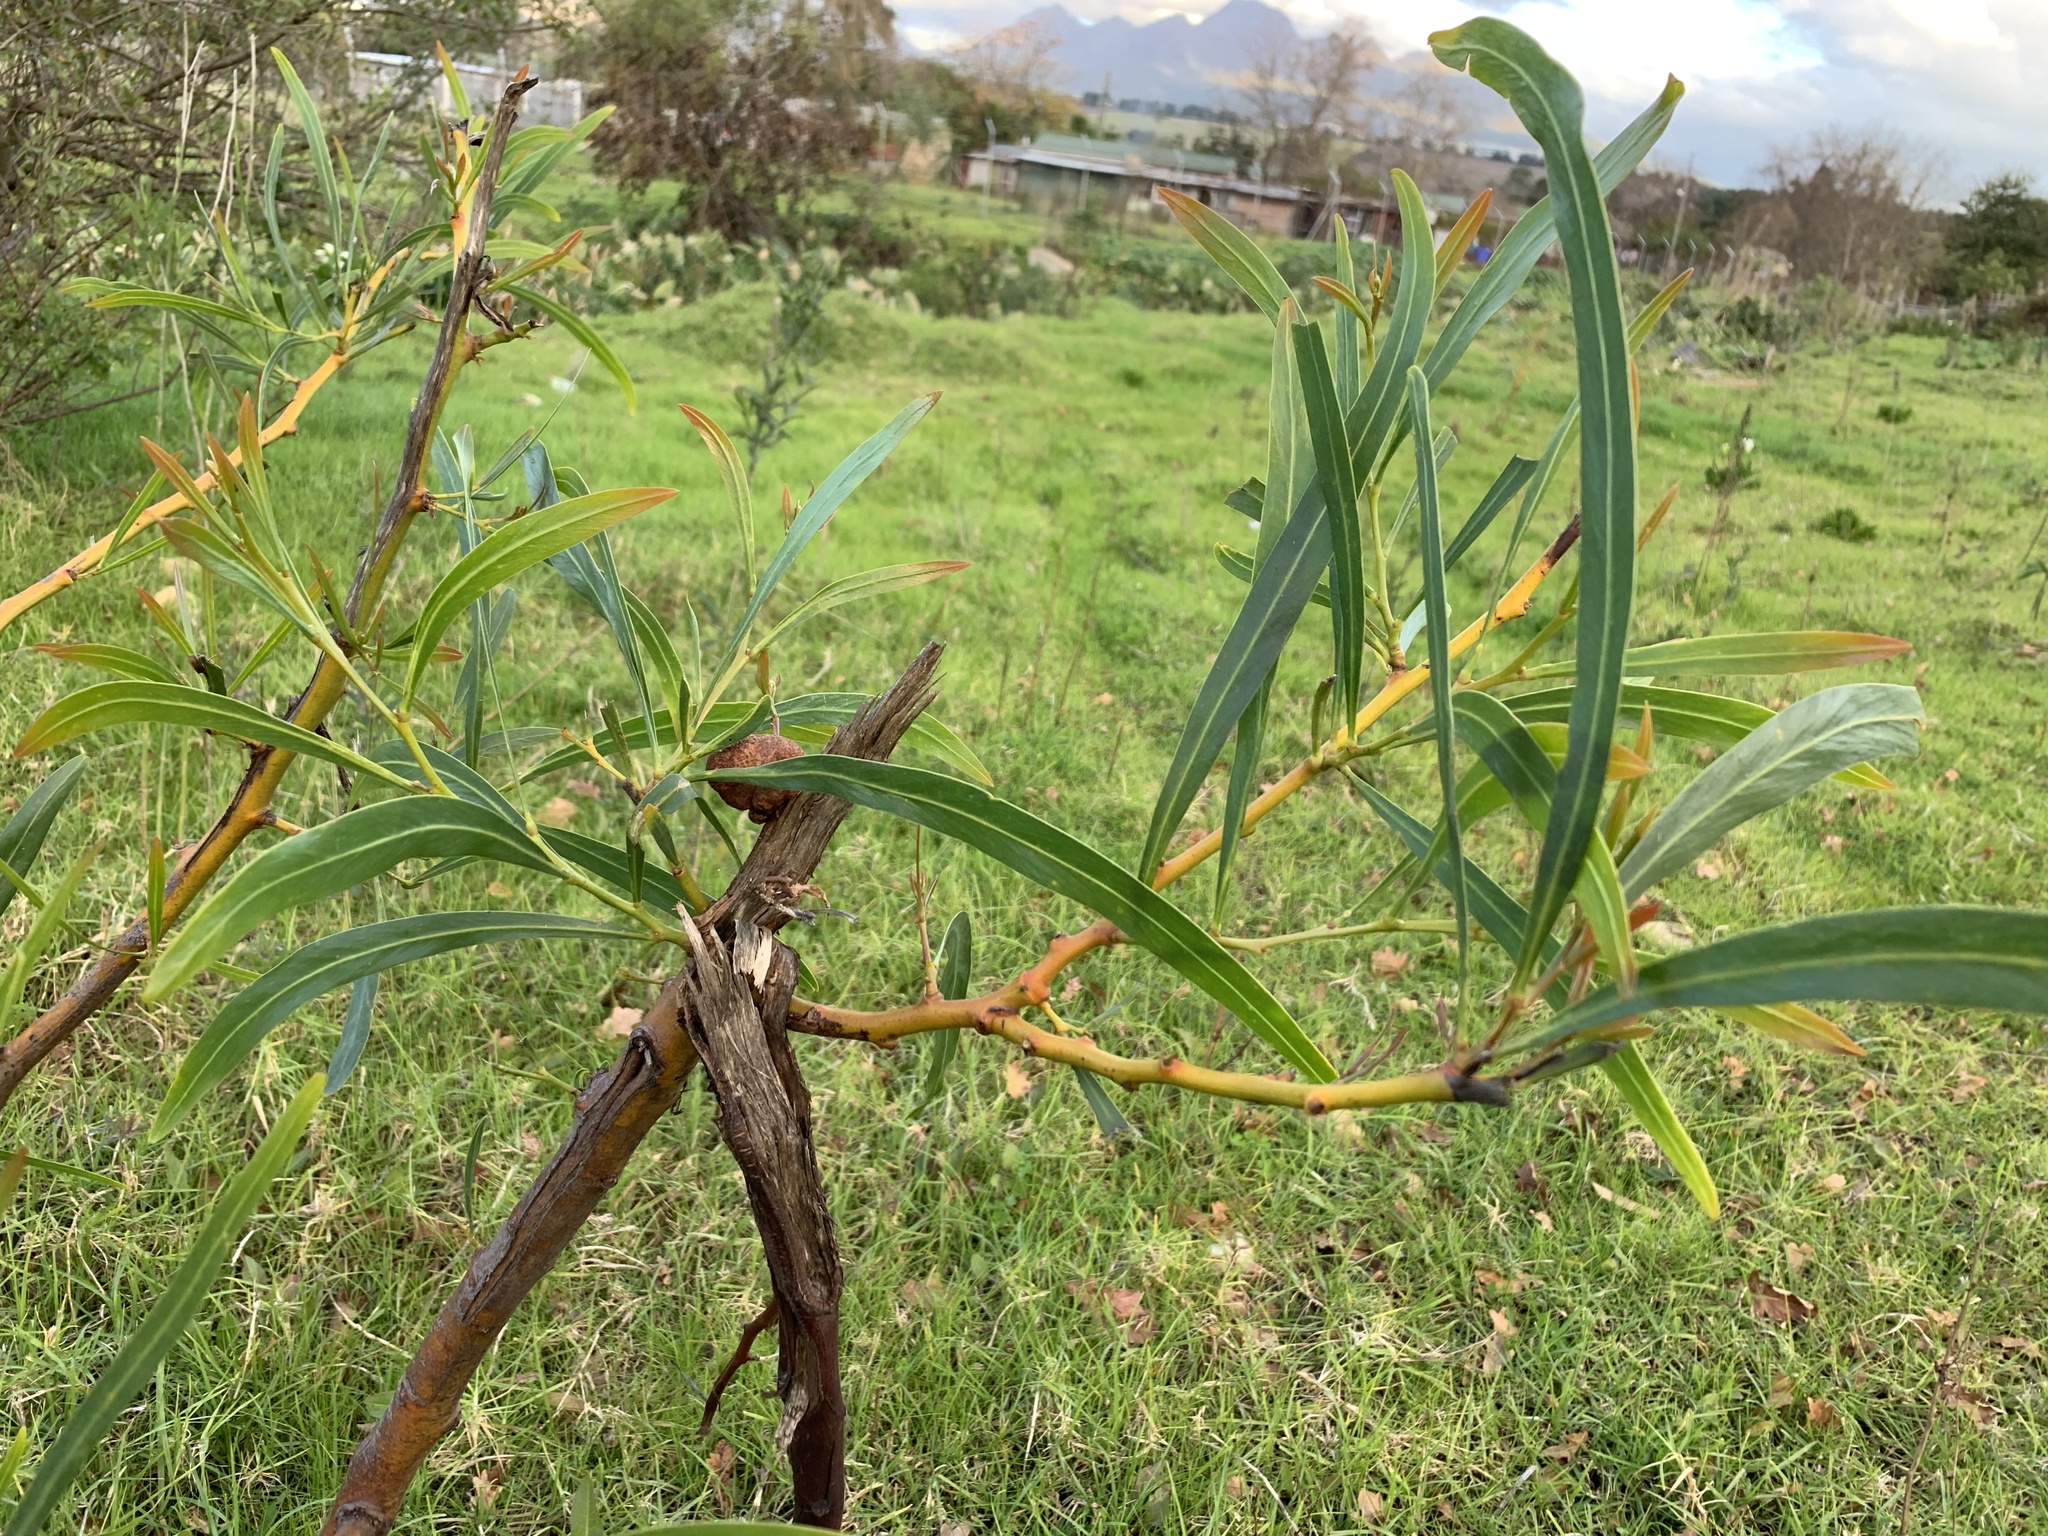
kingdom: Plantae
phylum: Tracheophyta
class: Magnoliopsida
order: Fabales
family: Fabaceae
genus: Acacia
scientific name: Acacia saligna
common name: Orange wattle
